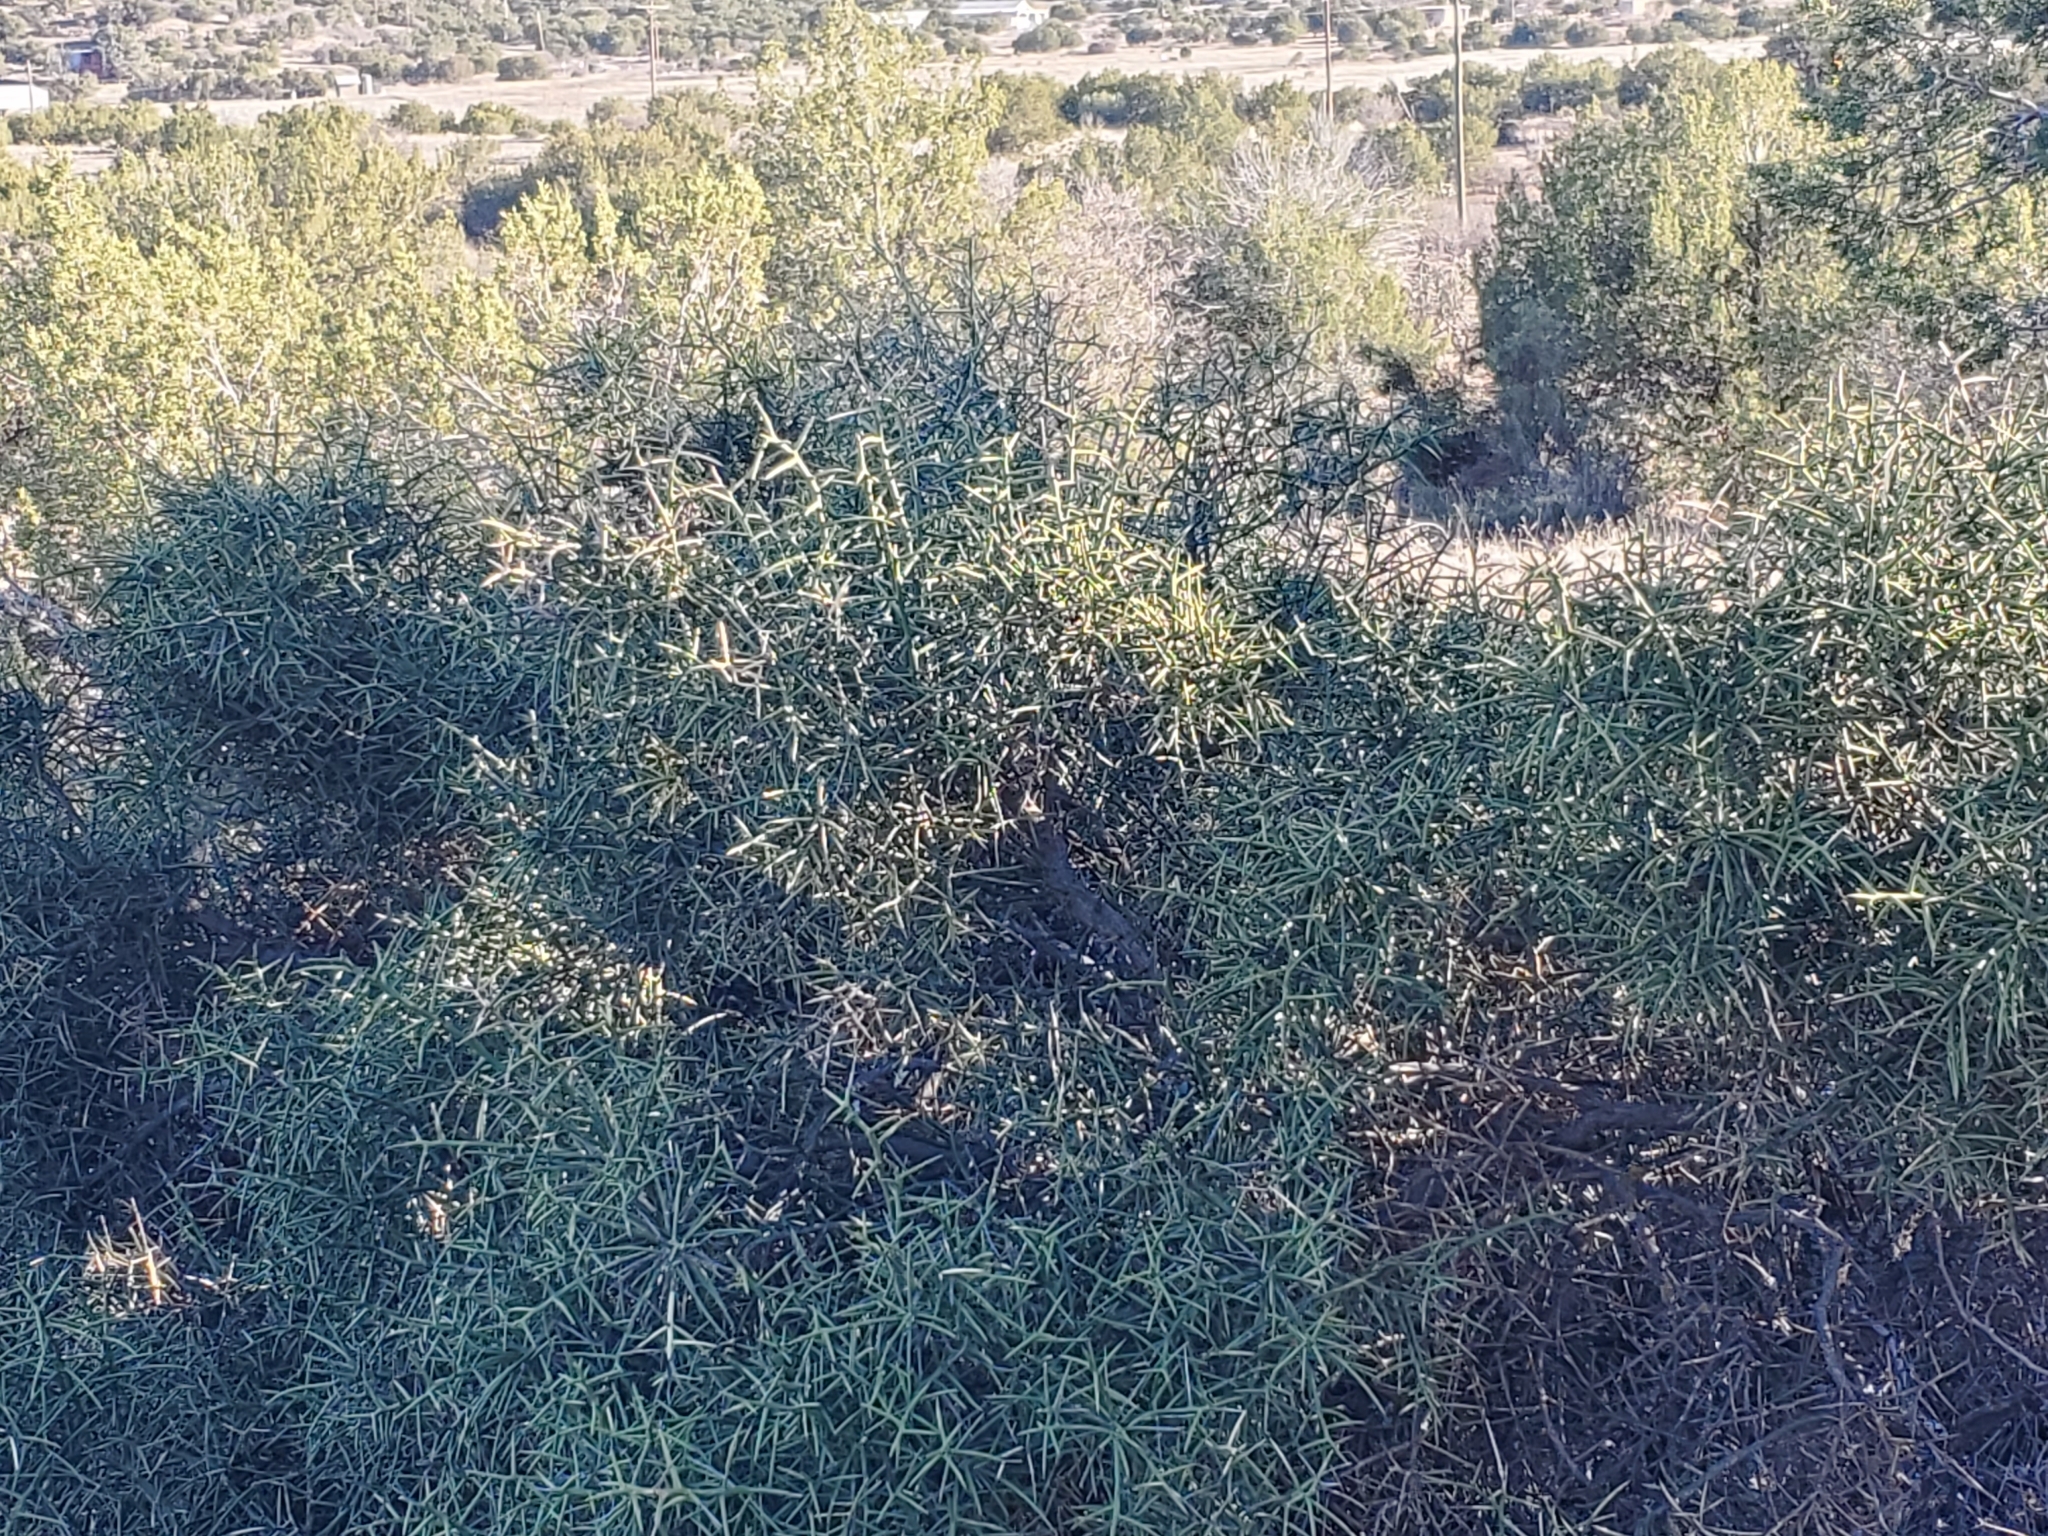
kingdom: Plantae
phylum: Tracheophyta
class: Magnoliopsida
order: Brassicales
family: Koeberliniaceae
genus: Koeberlinia
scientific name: Koeberlinia spinosa
